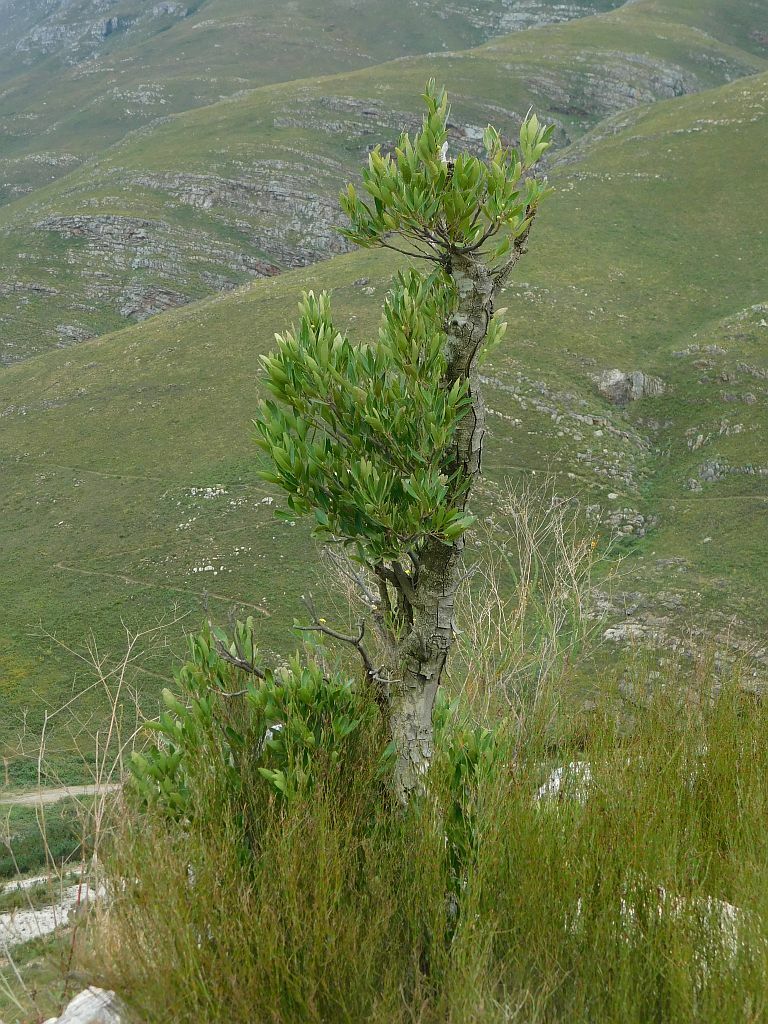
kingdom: Plantae
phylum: Tracheophyta
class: Magnoliopsida
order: Celastrales
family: Celastraceae
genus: Gymnosporia
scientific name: Gymnosporia laurina
